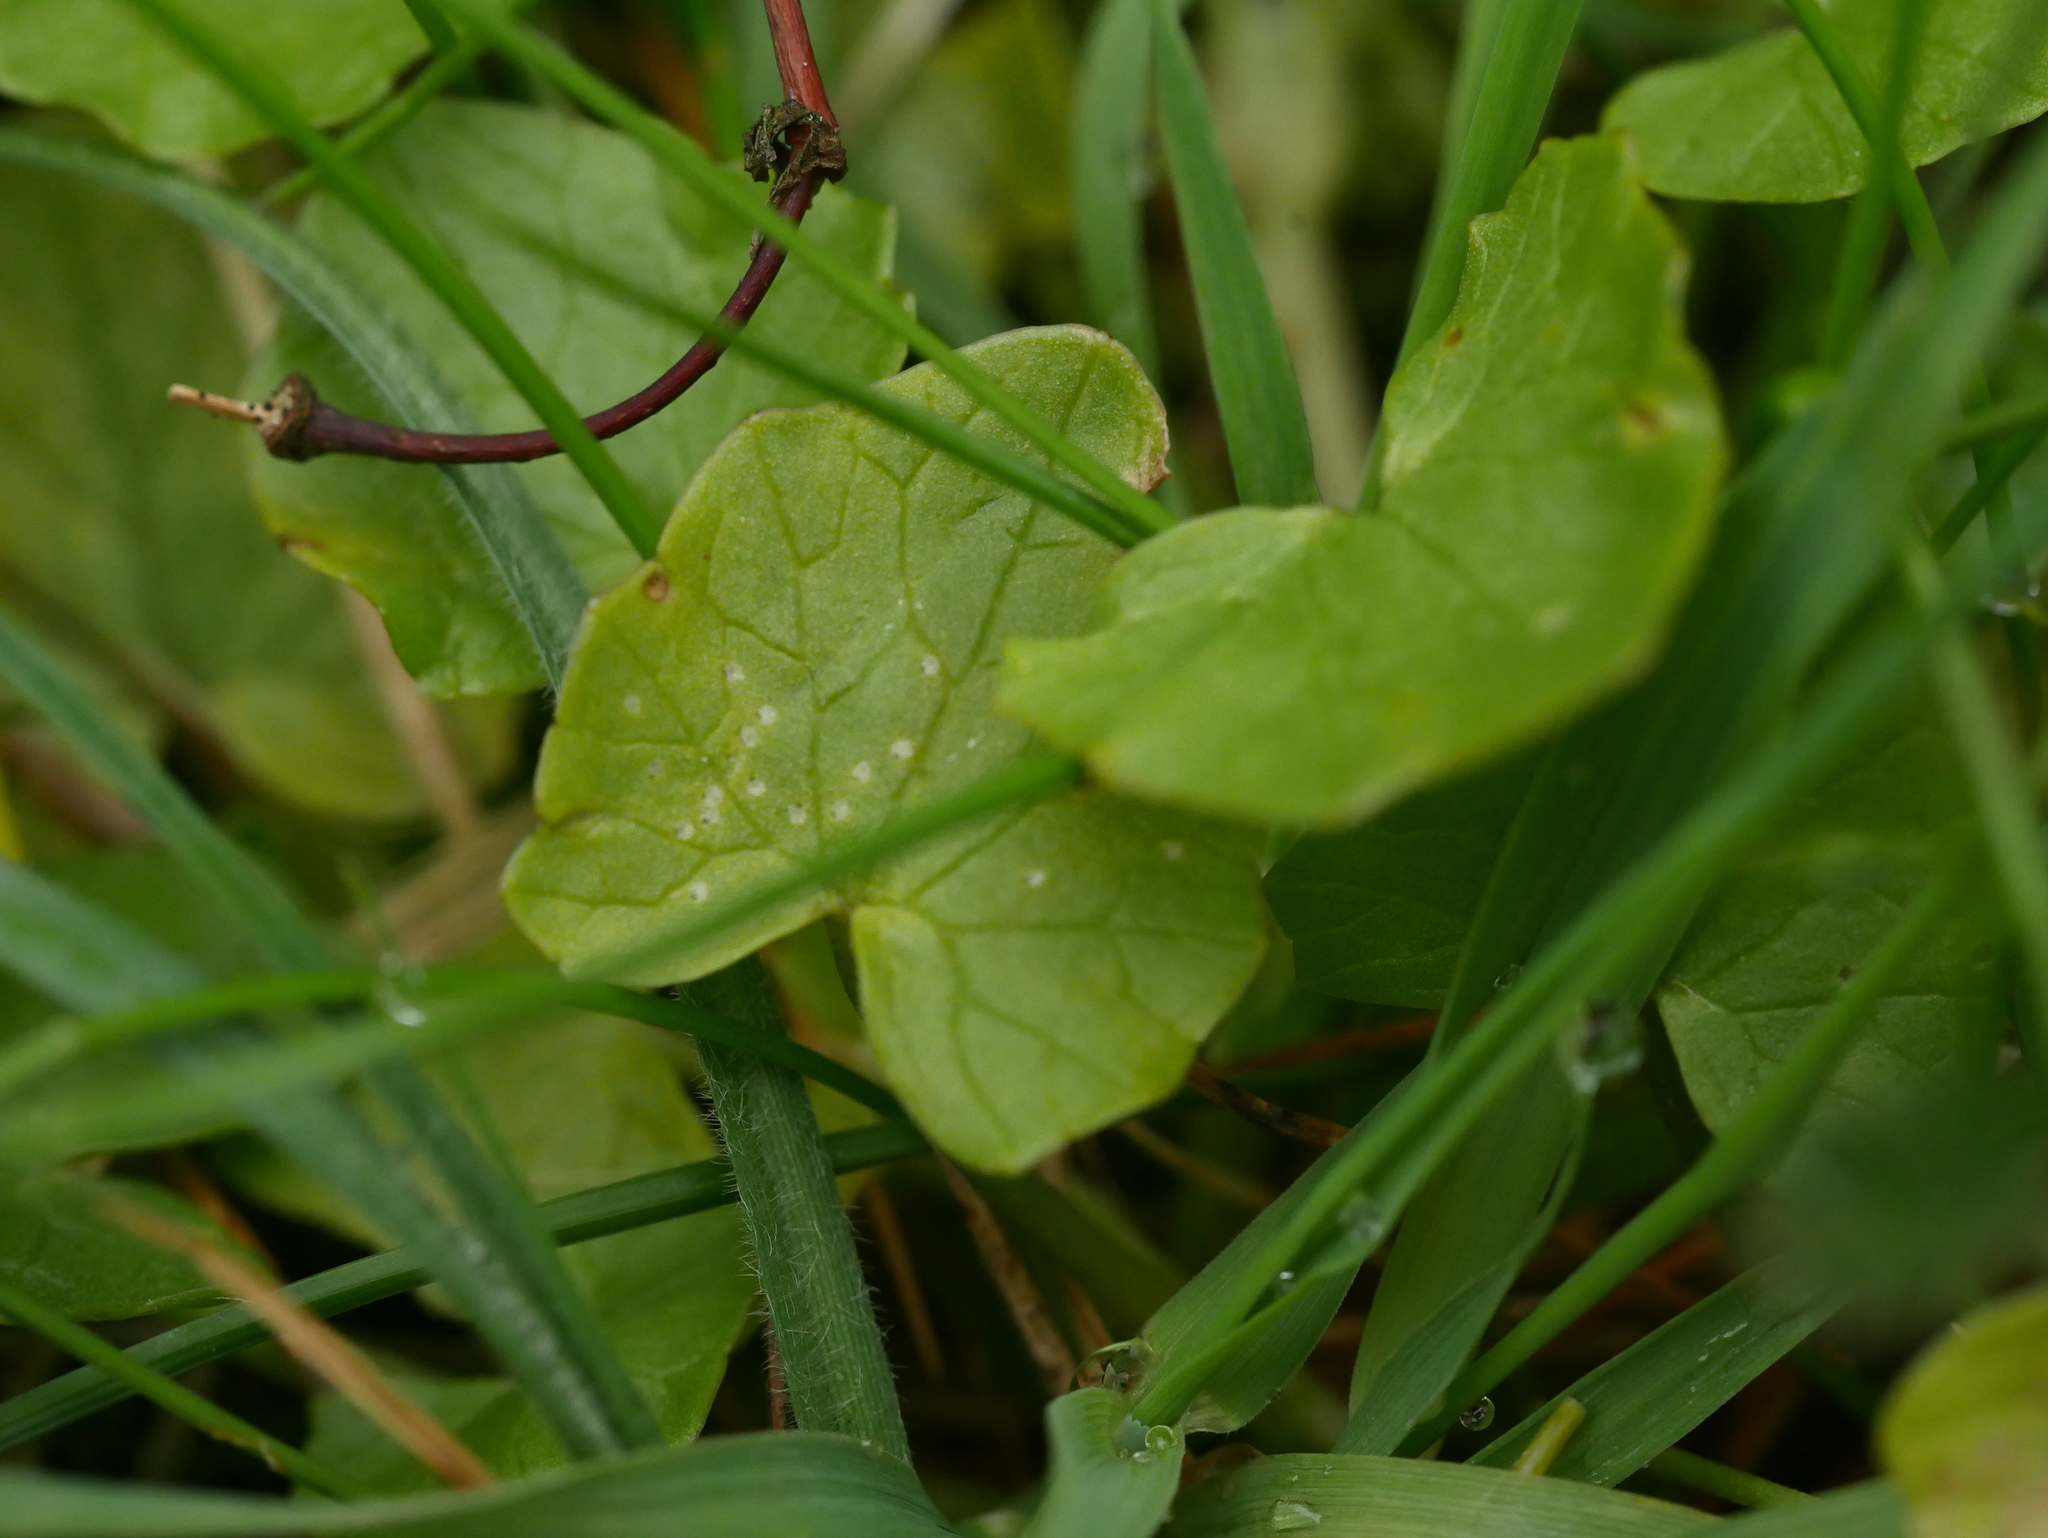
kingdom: Plantae
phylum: Tracheophyta
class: Magnoliopsida
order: Ranunculales
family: Ranunculaceae
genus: Ficaria
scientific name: Ficaria verna
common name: Lesser celandine
